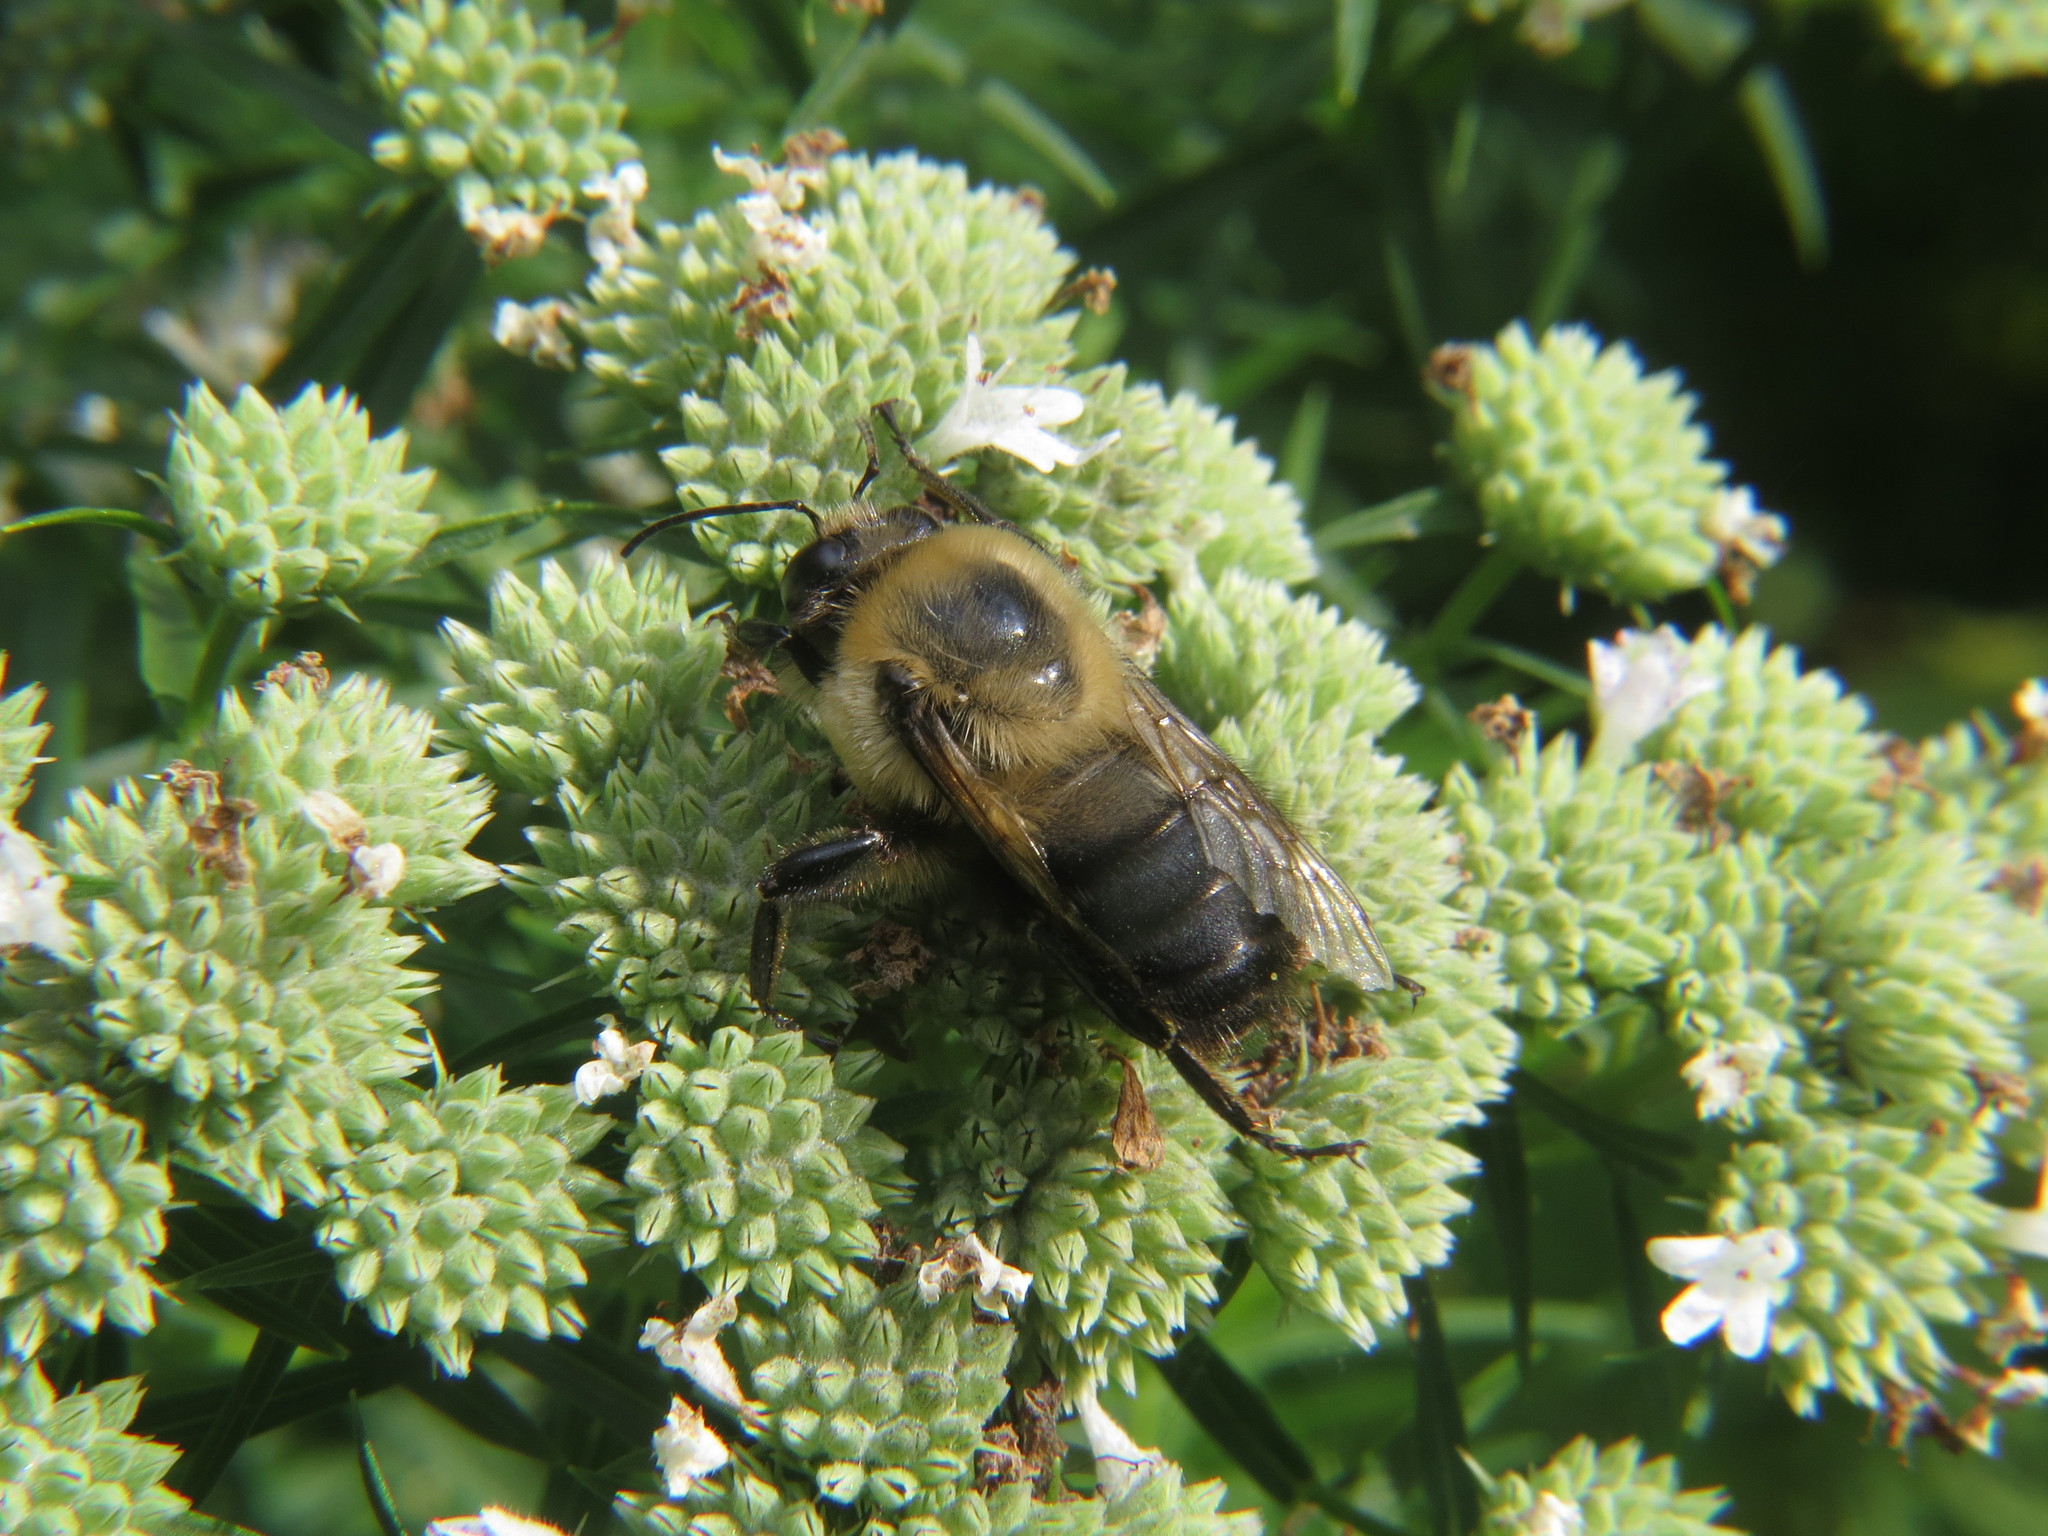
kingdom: Animalia
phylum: Arthropoda
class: Insecta
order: Hymenoptera
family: Apidae
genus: Bombus
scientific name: Bombus griseocollis
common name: Brown-belted bumble bee
